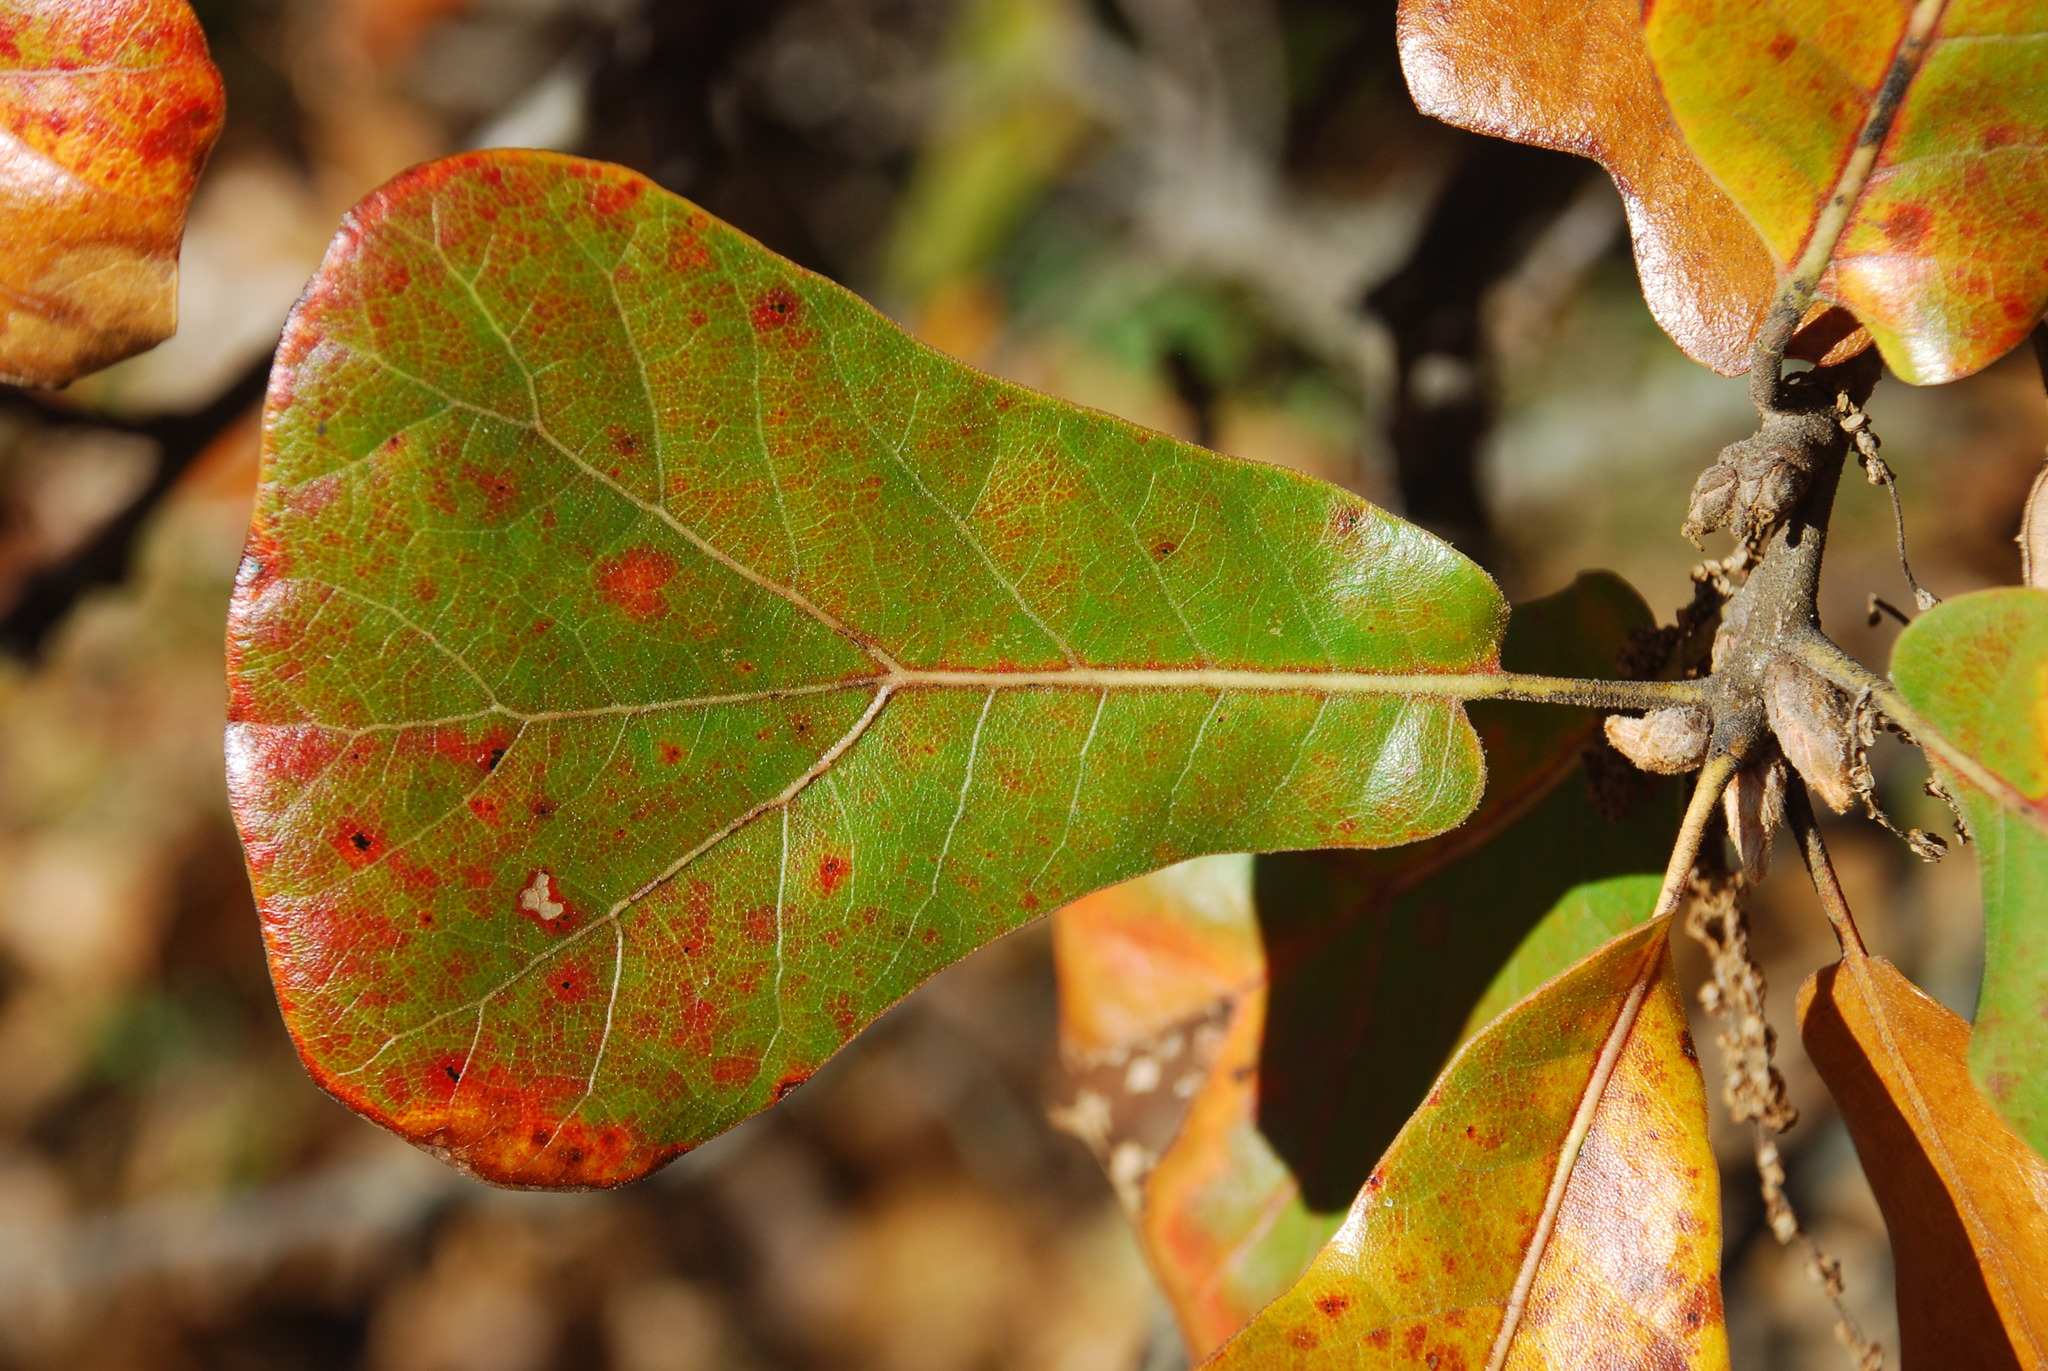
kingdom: Plantae
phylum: Tracheophyta
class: Magnoliopsida
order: Fagales
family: Fagaceae
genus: Quercus
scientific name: Quercus marilandica
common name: Blackjack oak
